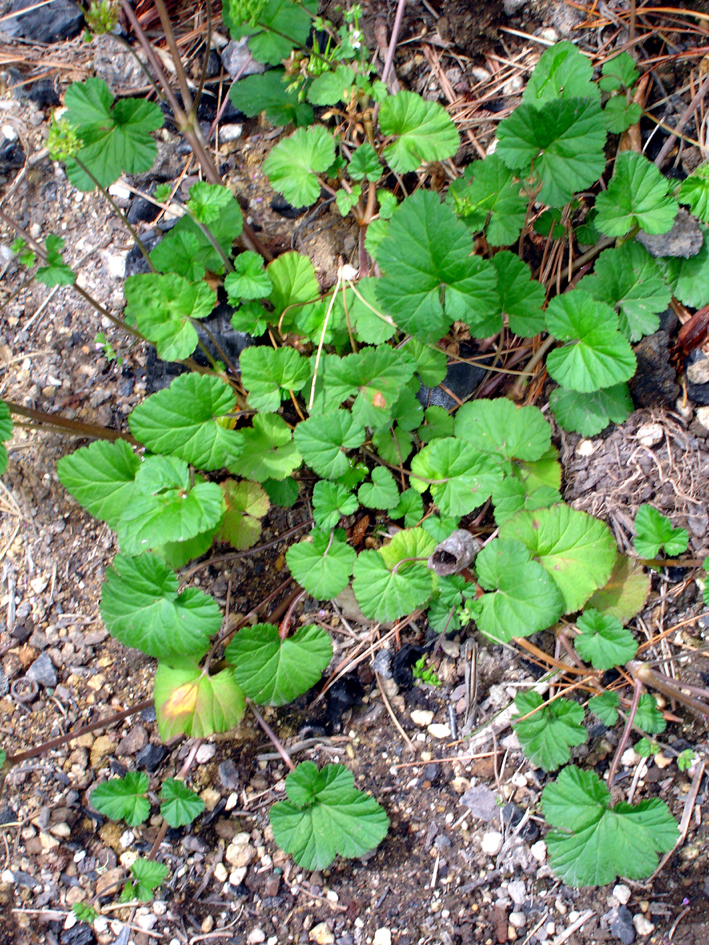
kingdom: Plantae
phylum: Tracheophyta
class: Magnoliopsida
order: Geraniales
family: Geraniaceae
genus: Pelargonium
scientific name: Pelargonium inodorum
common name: Kopata geranium
